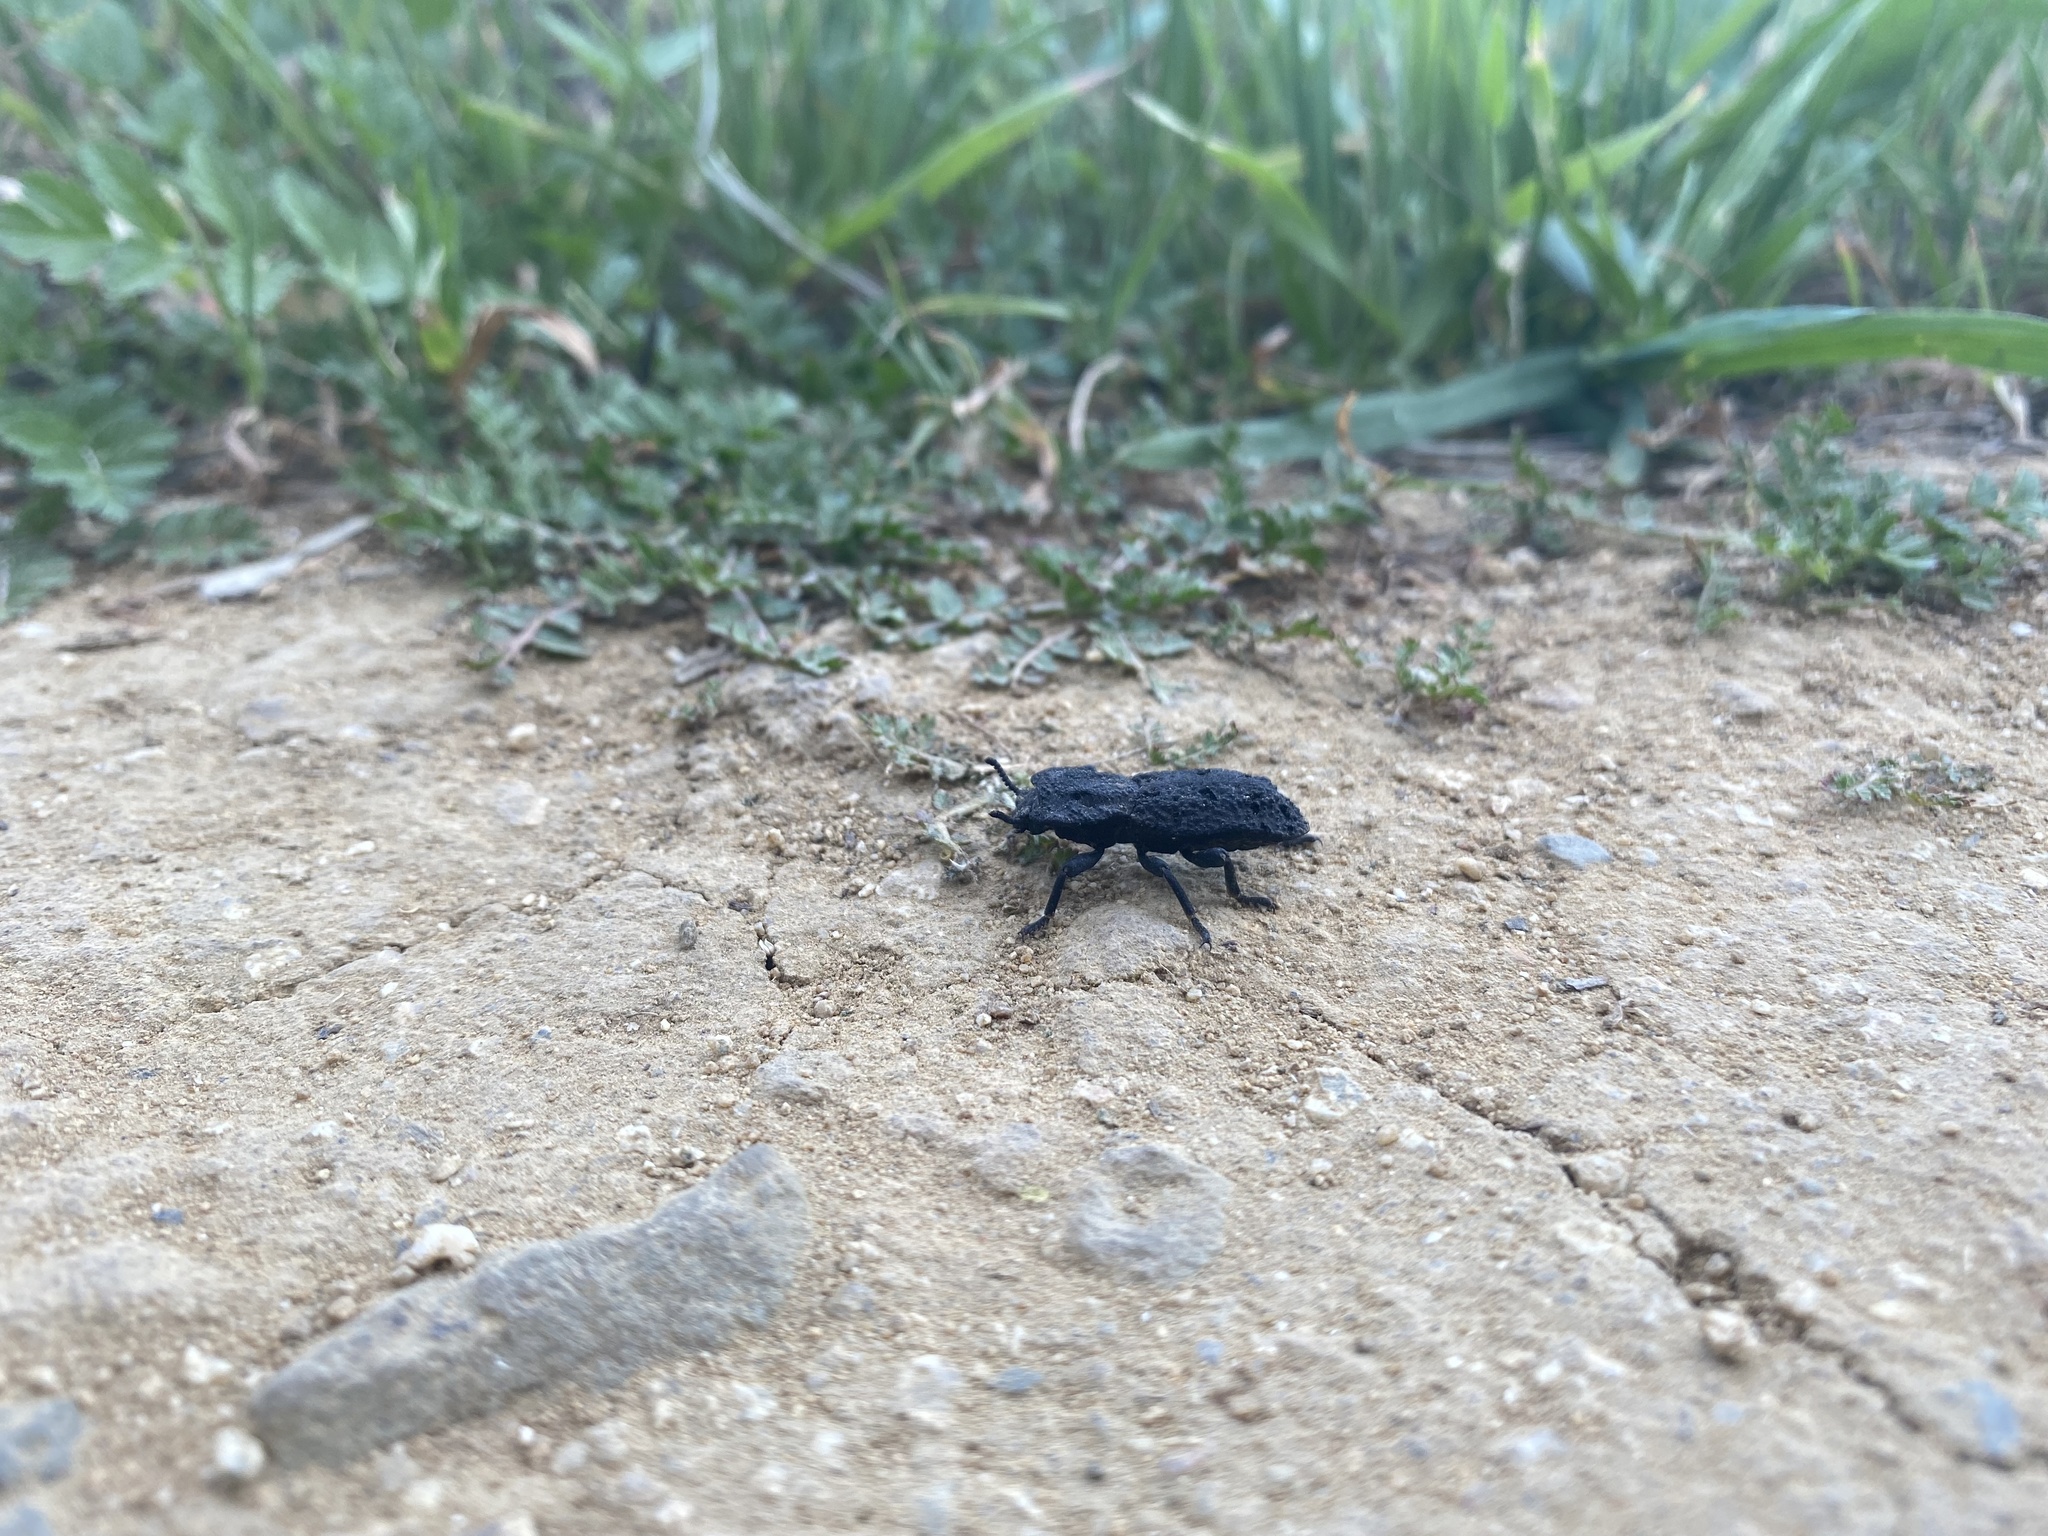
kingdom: Animalia
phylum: Arthropoda
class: Insecta
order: Coleoptera
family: Zopheridae
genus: Phloeodes
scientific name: Phloeodes diabolicus
